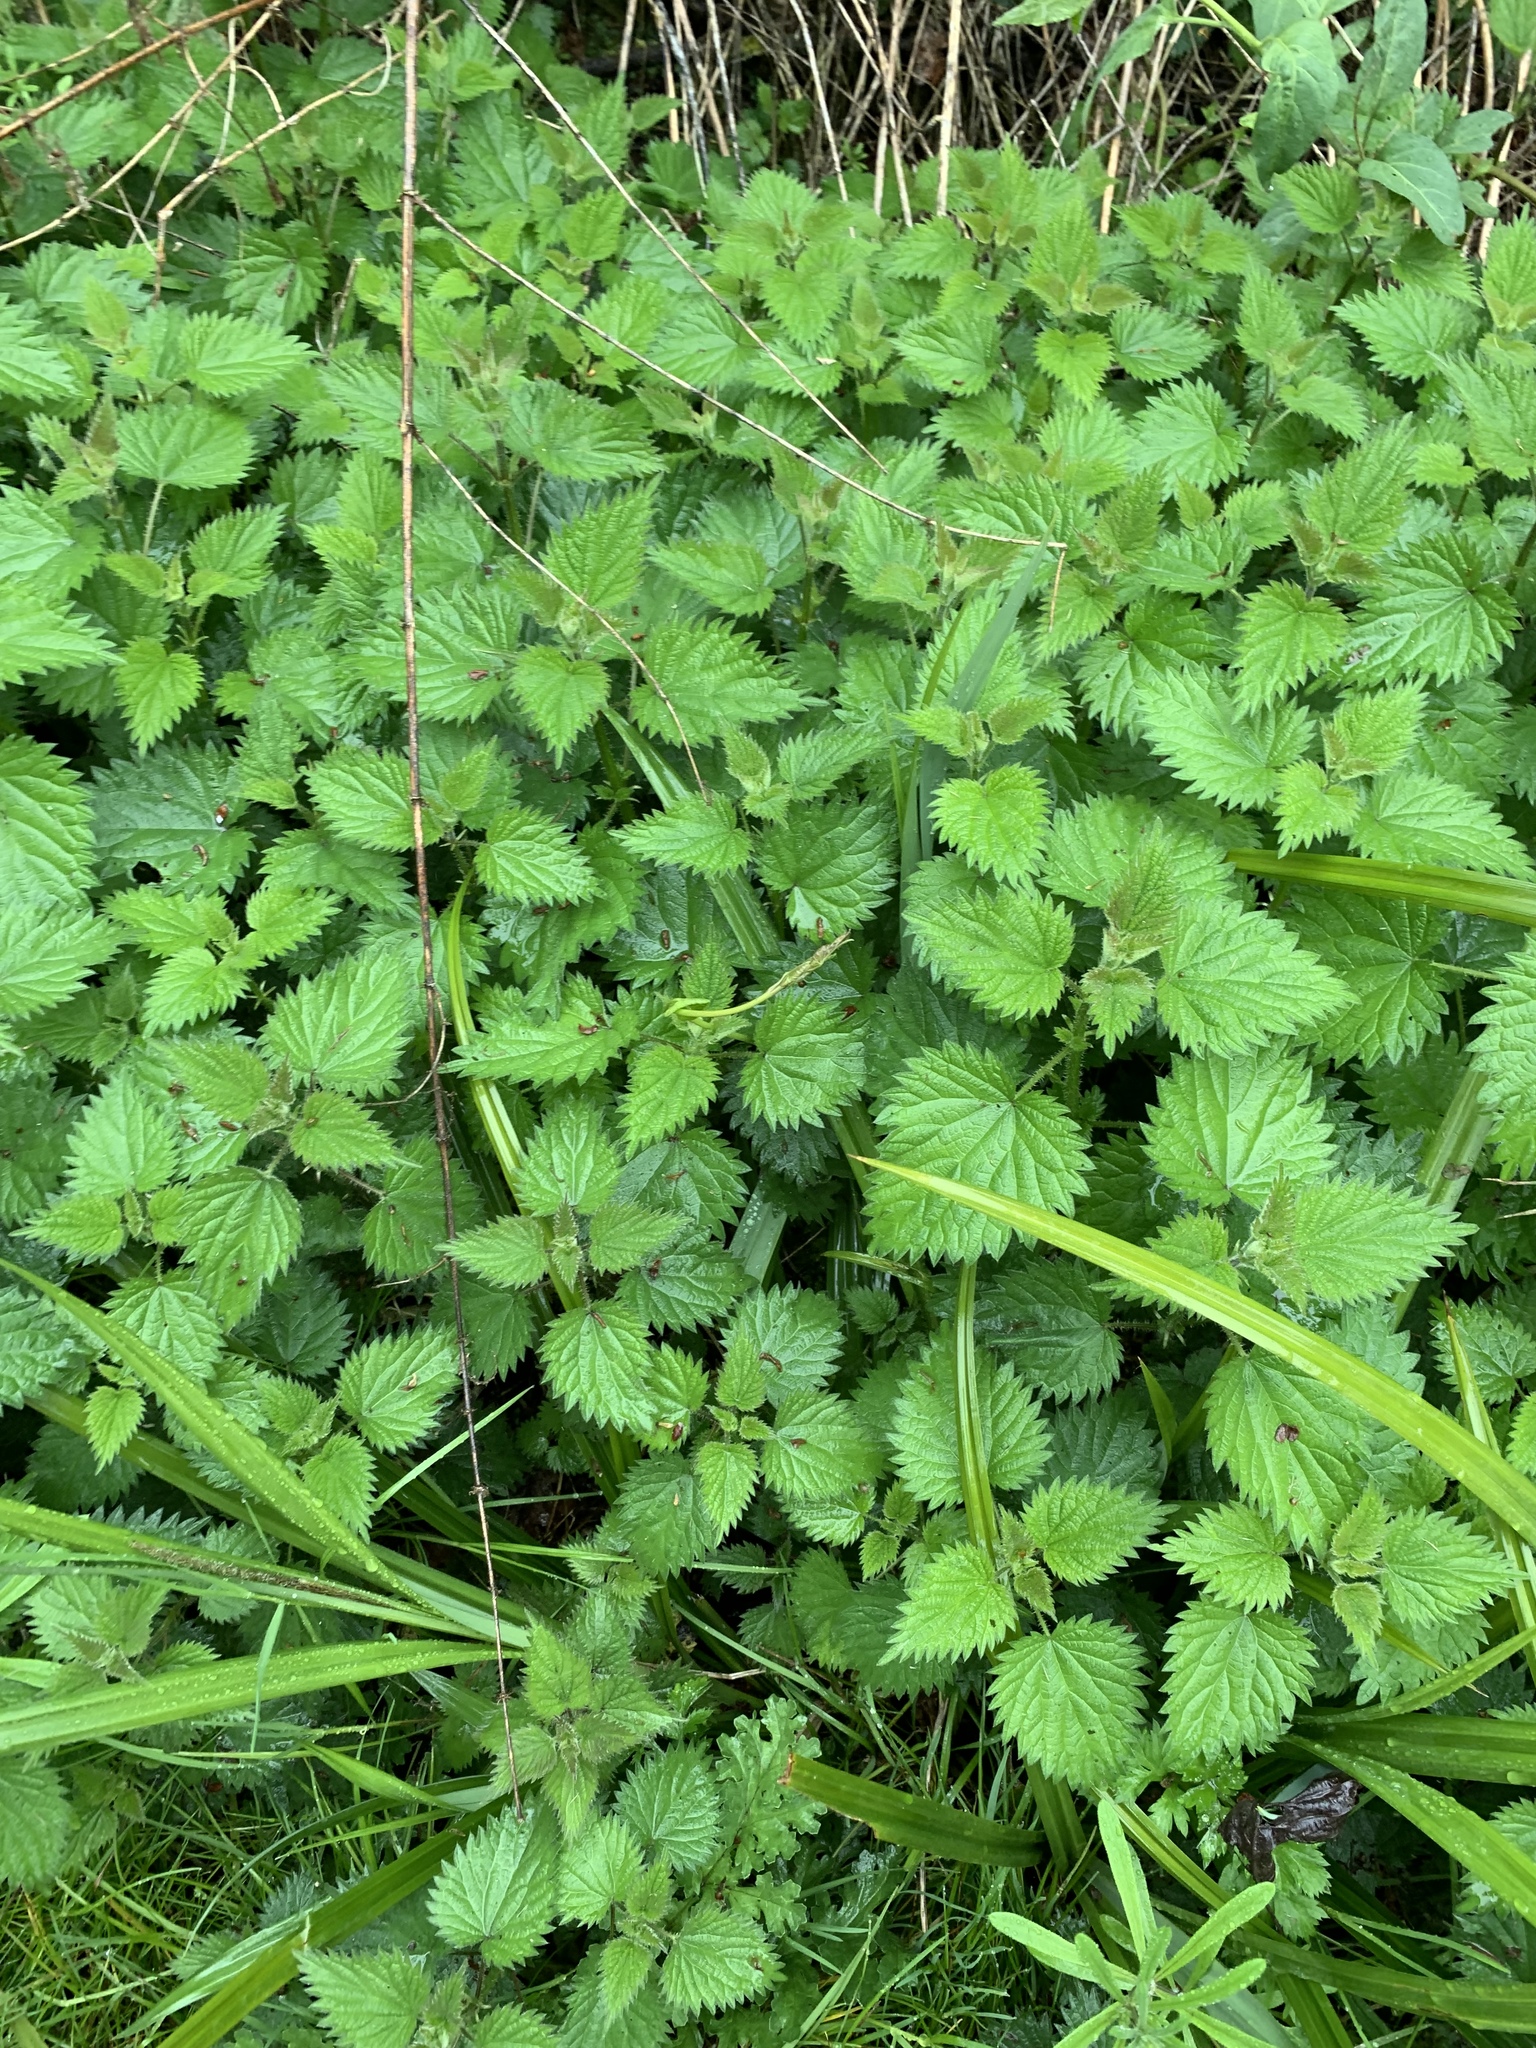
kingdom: Plantae
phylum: Tracheophyta
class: Magnoliopsida
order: Rosales
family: Urticaceae
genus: Urtica
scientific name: Urtica dioica
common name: Common nettle
